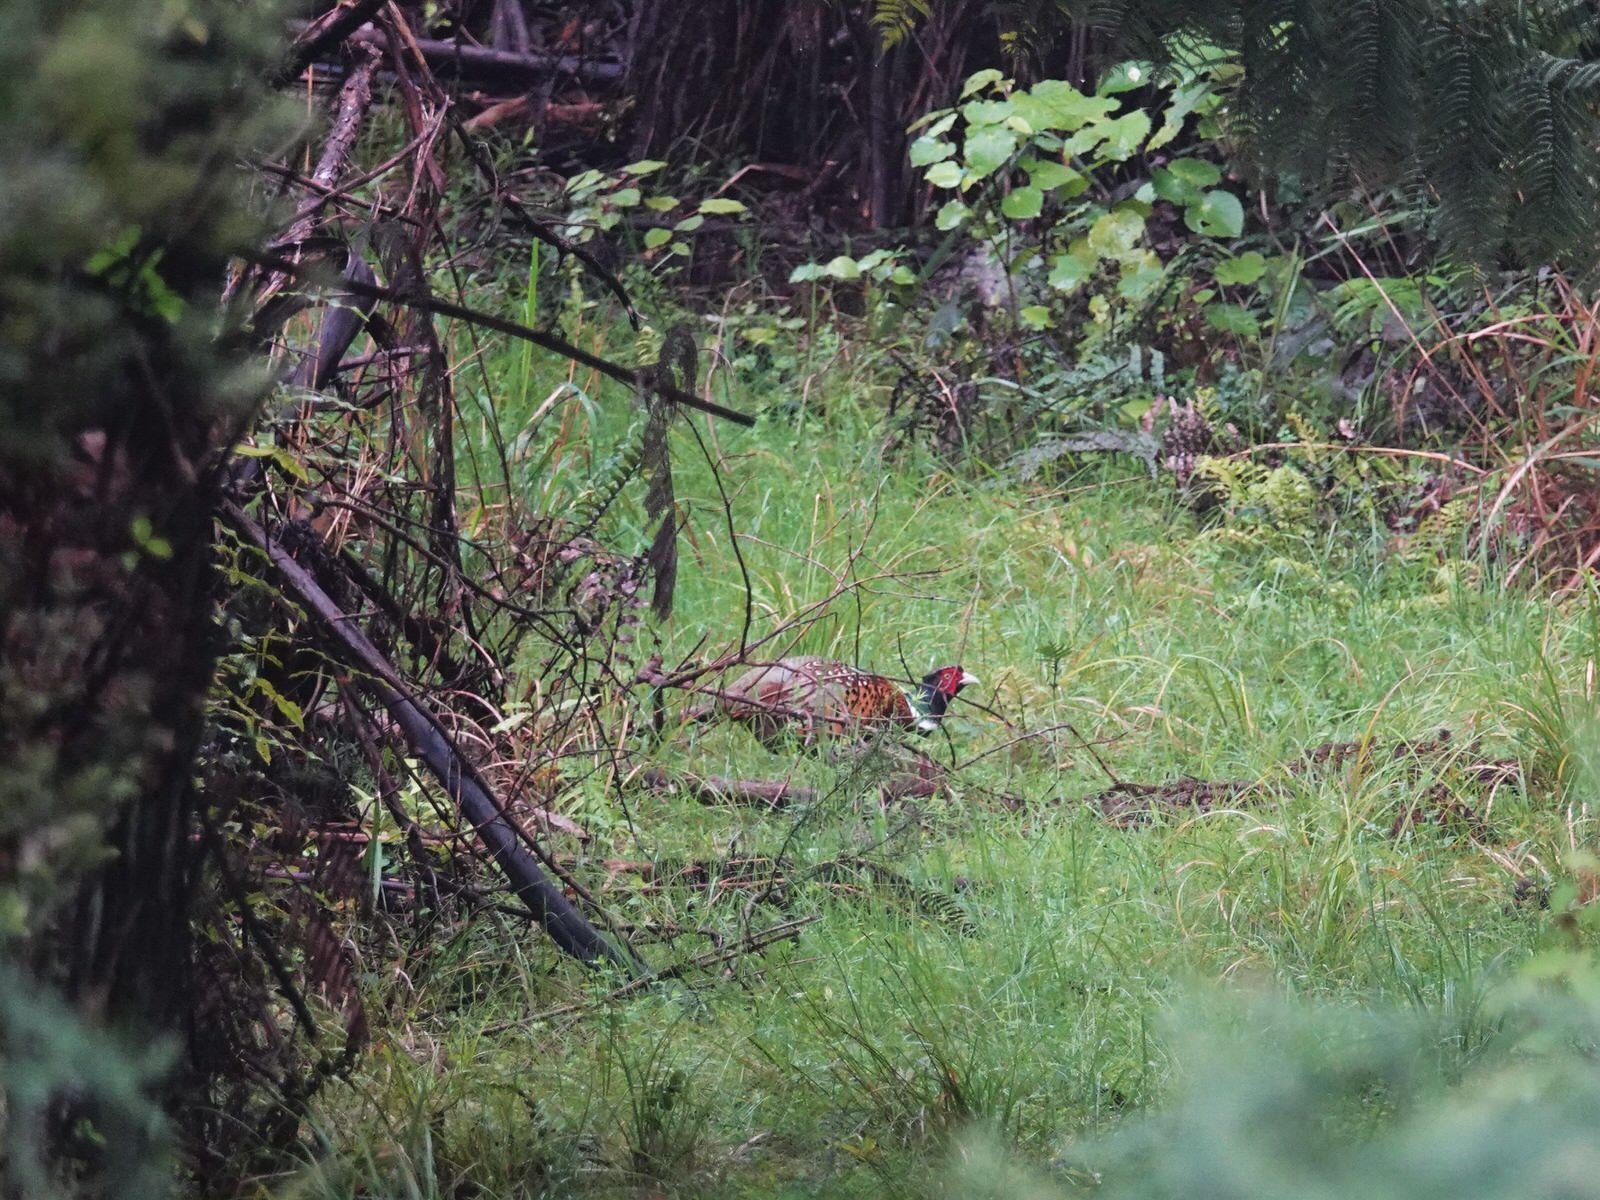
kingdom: Animalia
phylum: Chordata
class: Aves
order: Galliformes
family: Phasianidae
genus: Phasianus
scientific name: Phasianus colchicus
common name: Common pheasant
